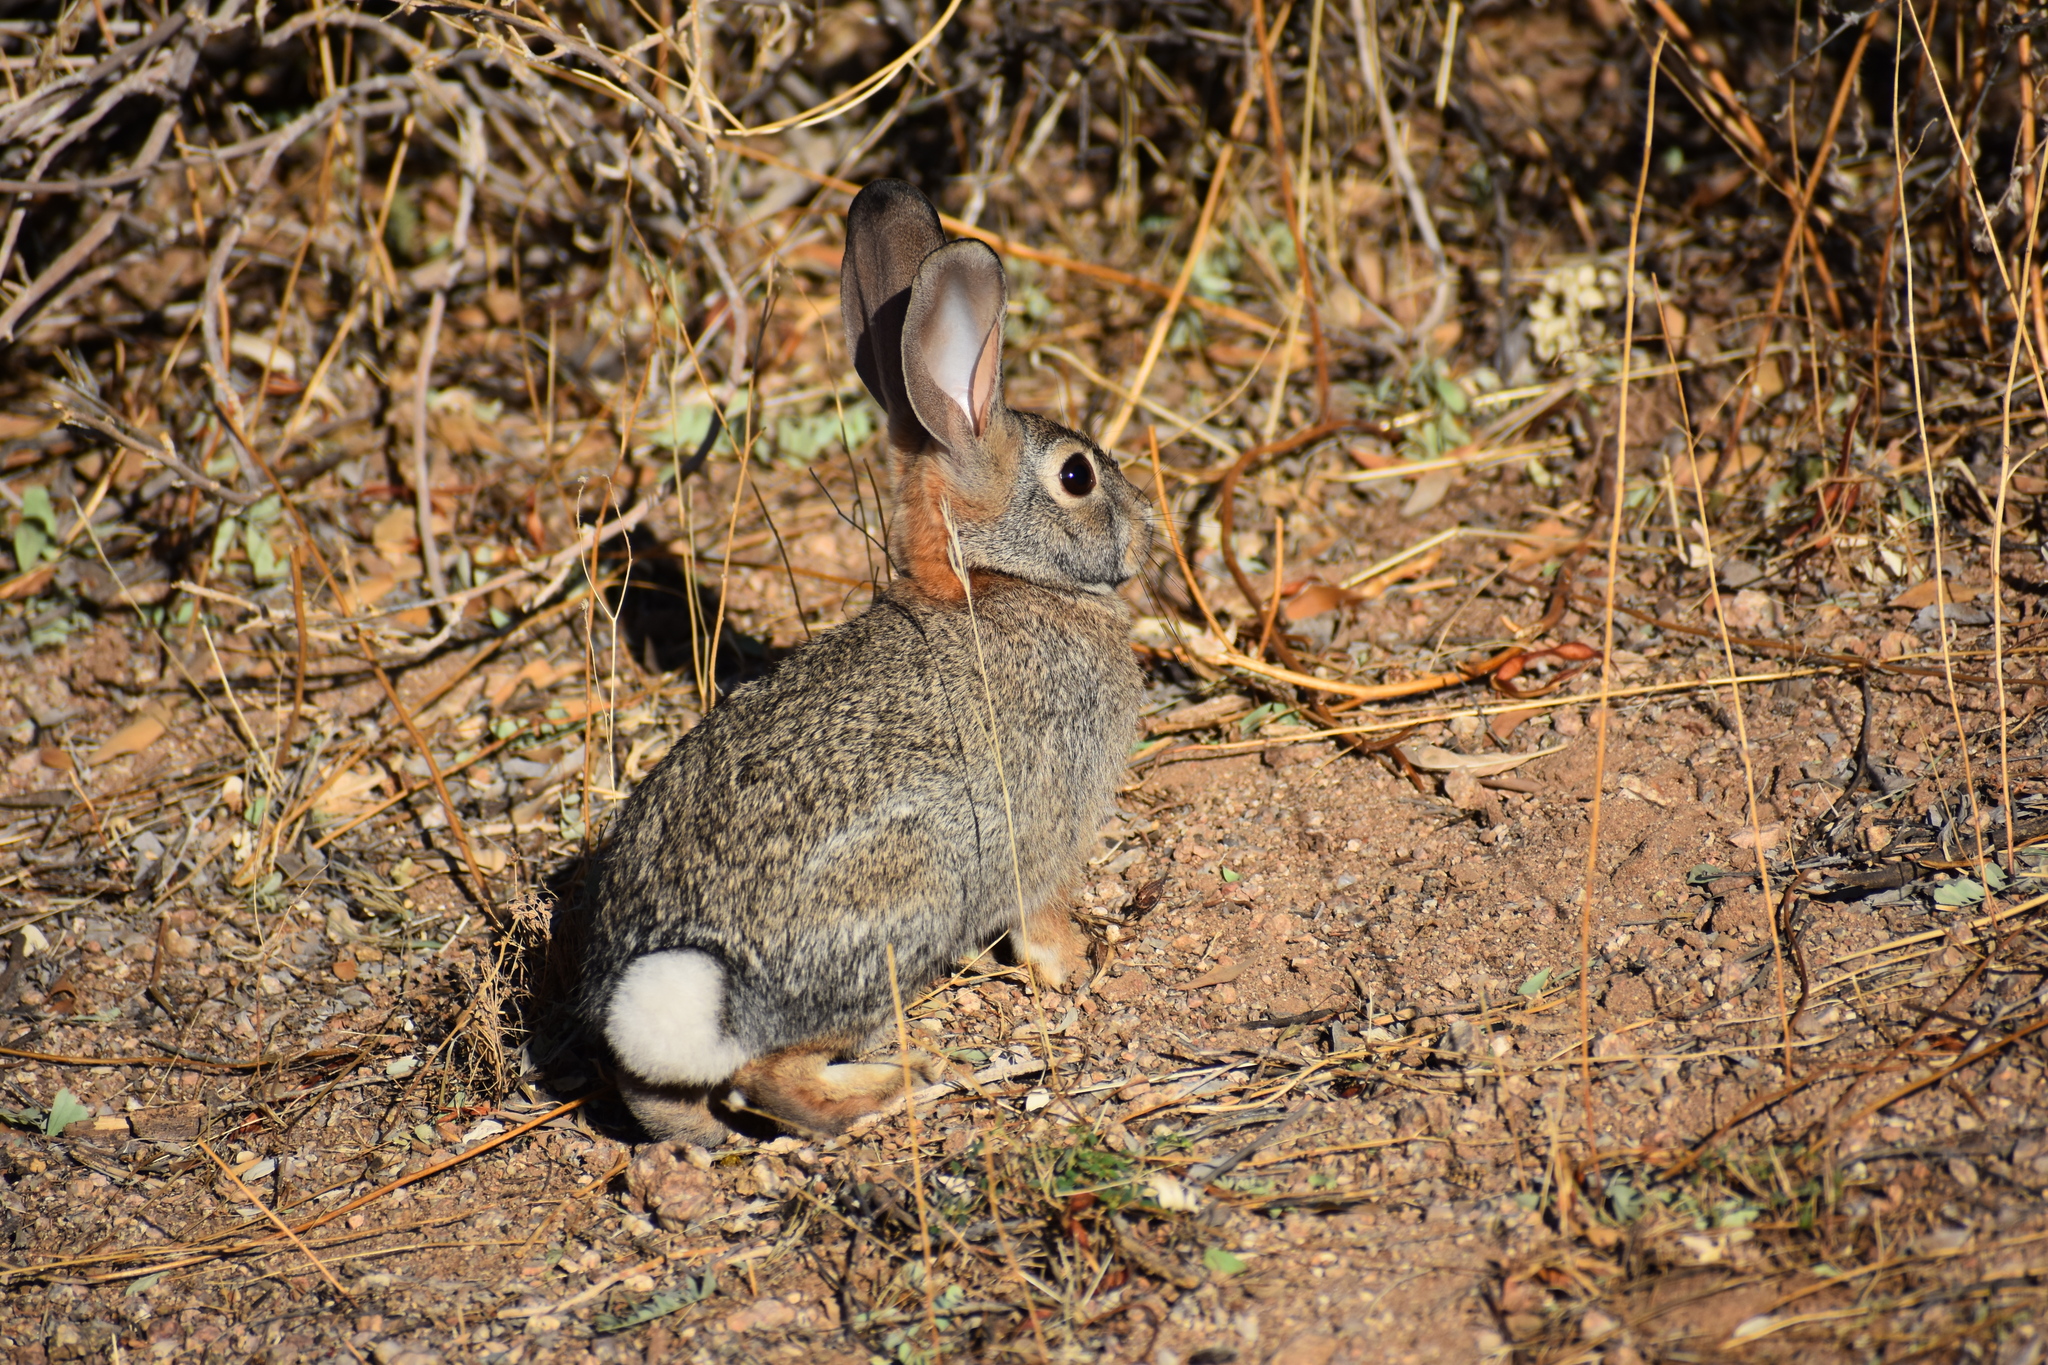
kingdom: Animalia
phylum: Chordata
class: Mammalia
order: Lagomorpha
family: Leporidae
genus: Sylvilagus
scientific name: Sylvilagus audubonii
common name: Desert cottontail
